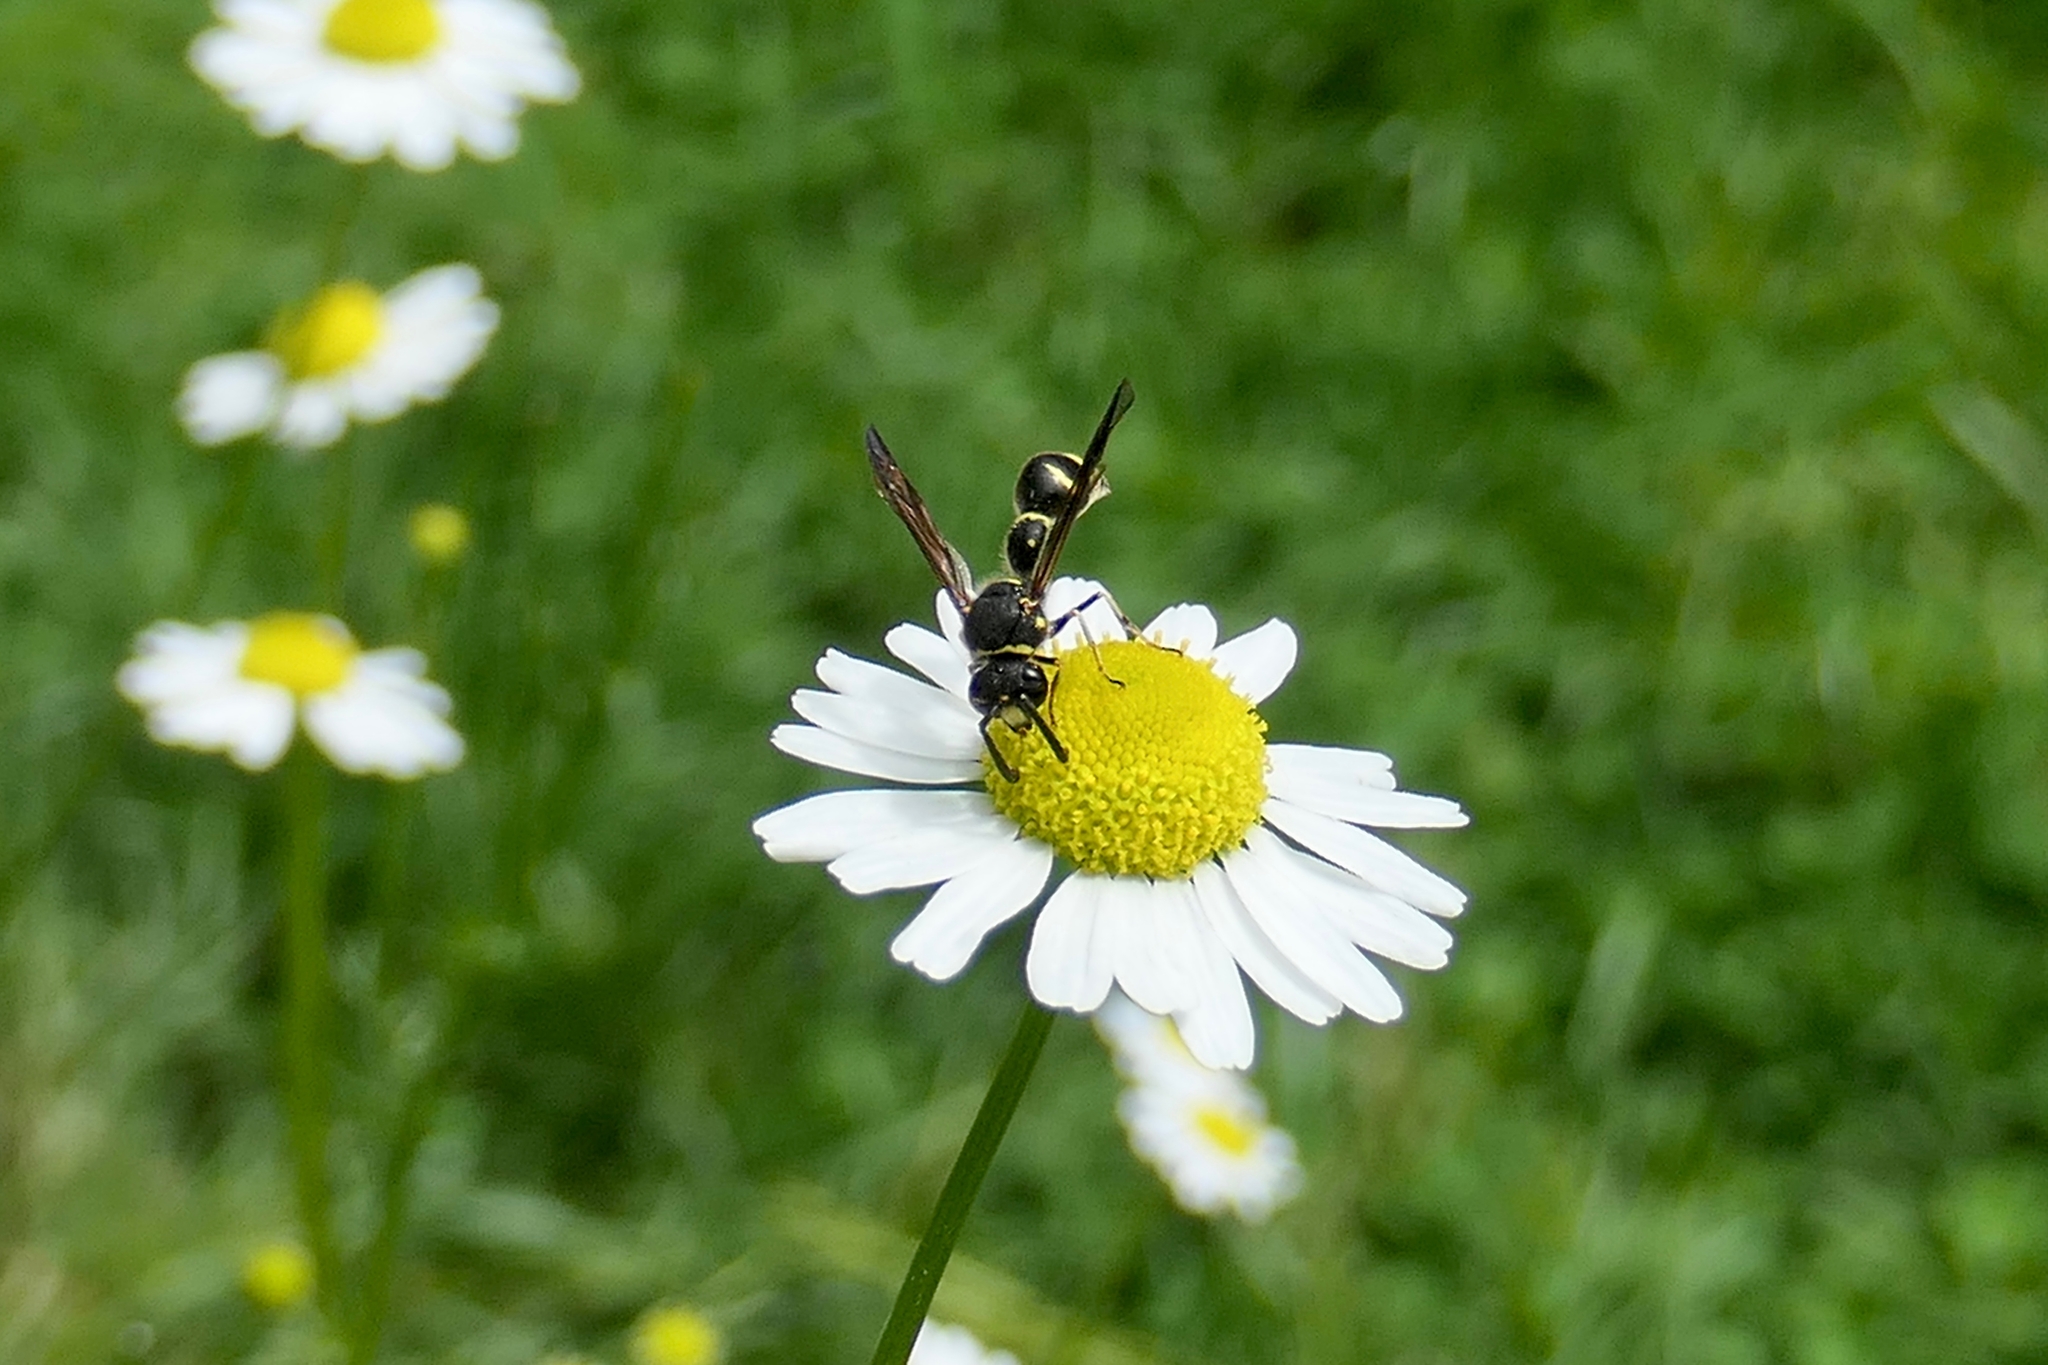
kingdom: Animalia
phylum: Arthropoda
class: Insecta
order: Hymenoptera
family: Vespidae
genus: Eumenes
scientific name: Eumenes consobrinus
